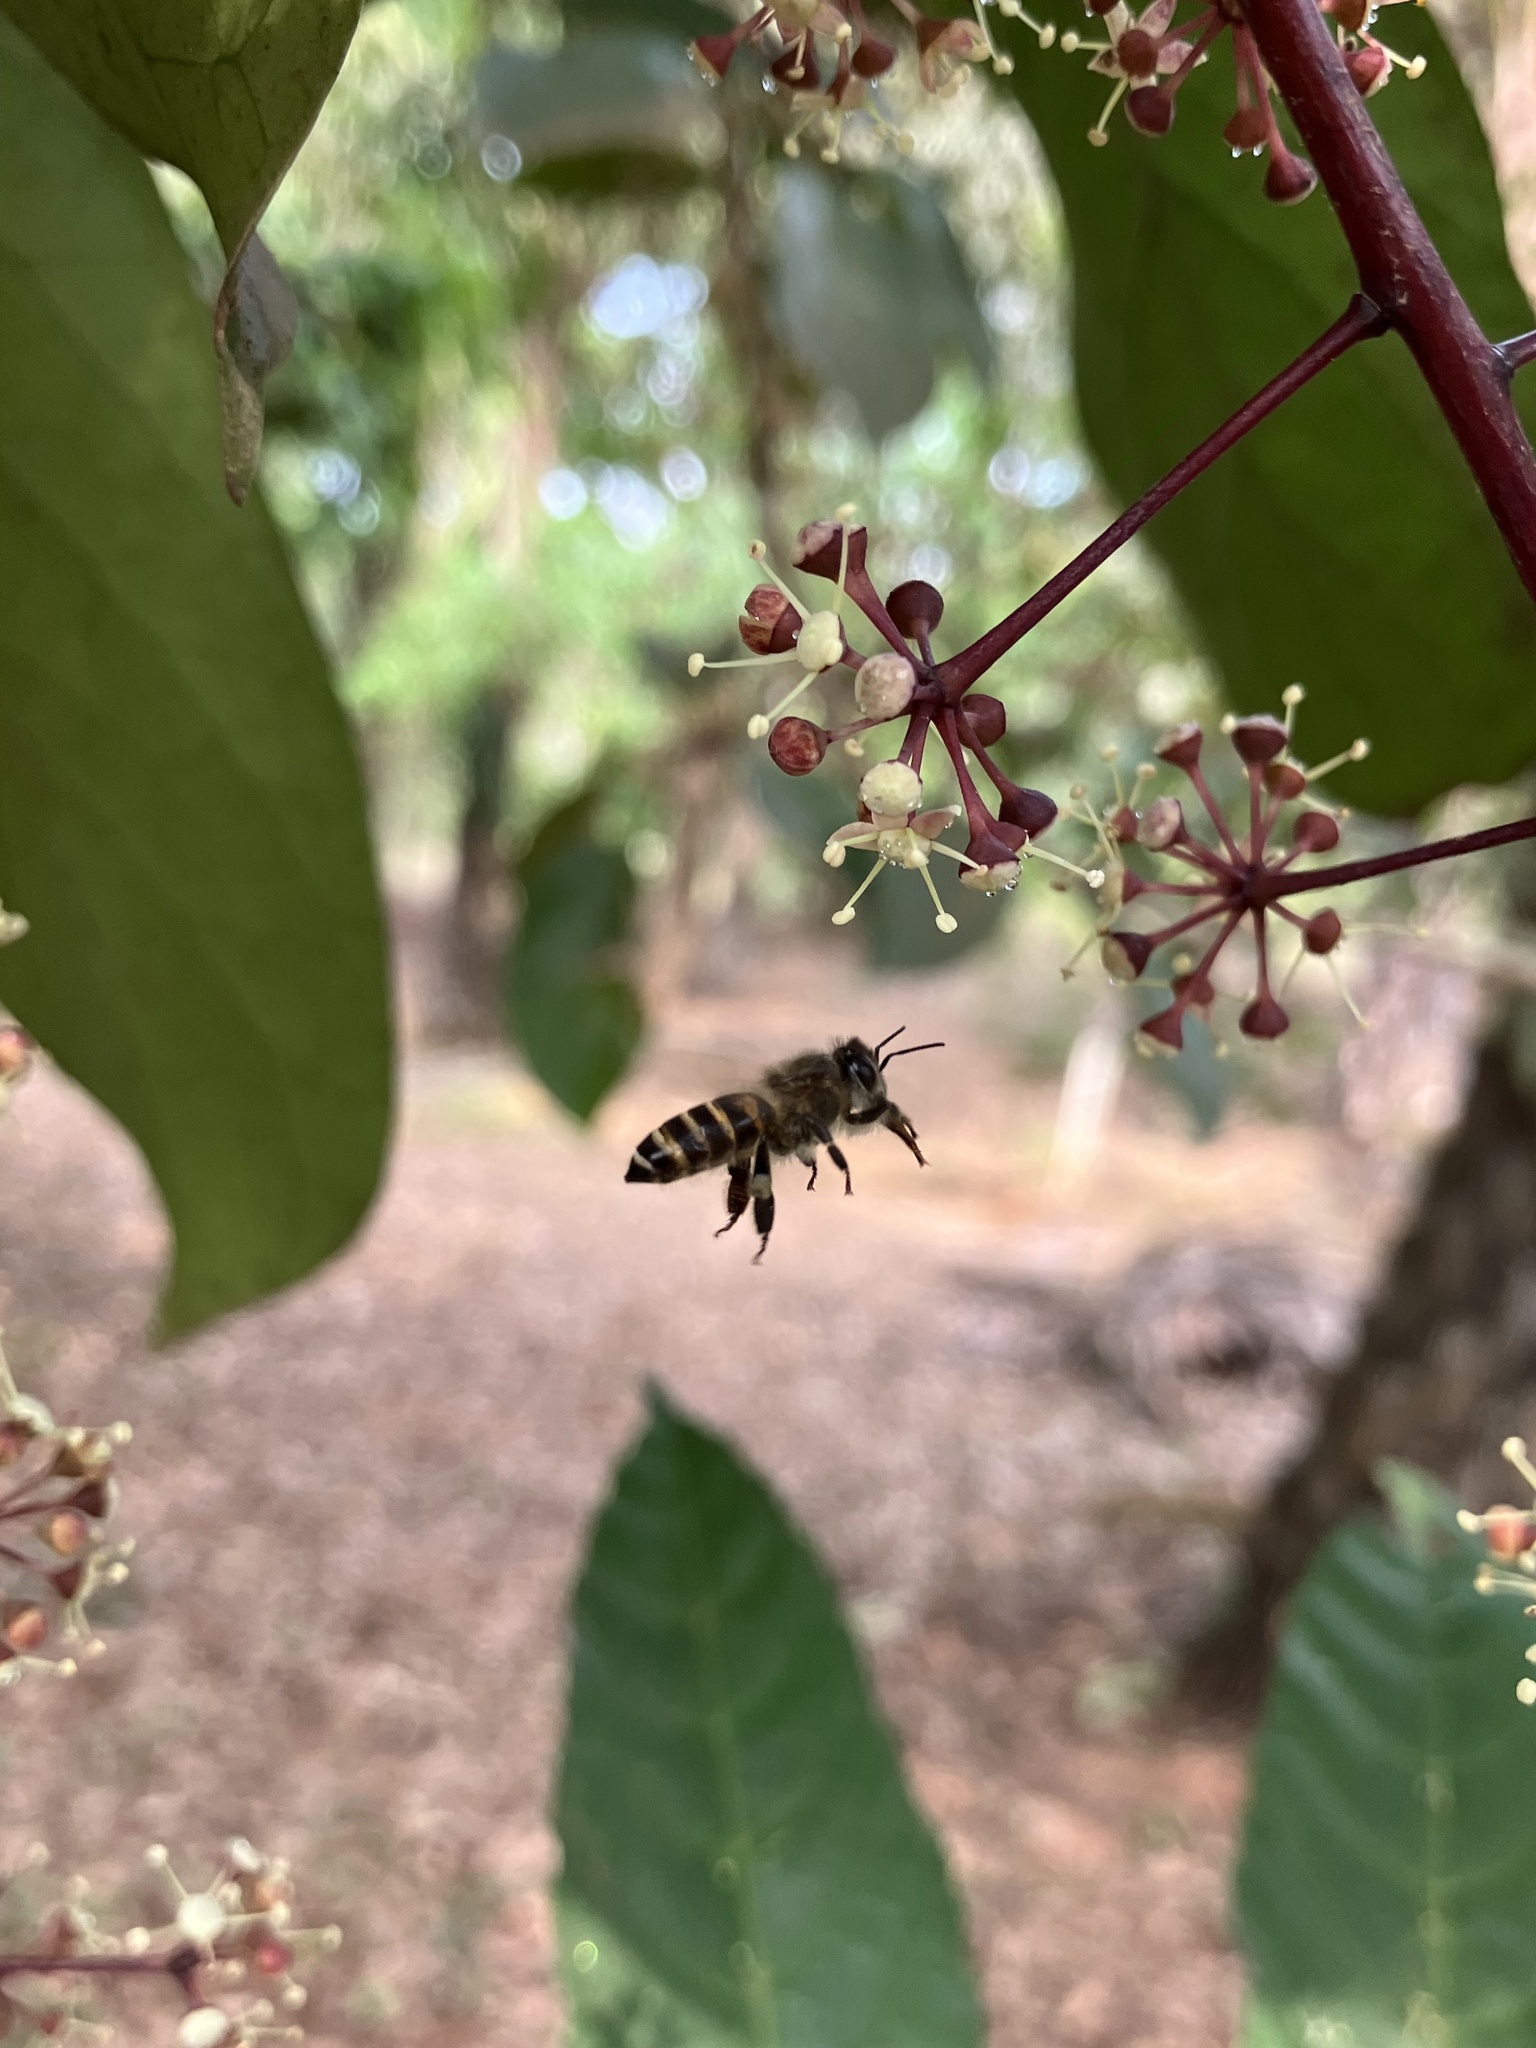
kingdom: Animalia
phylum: Arthropoda
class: Insecta
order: Hymenoptera
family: Apidae
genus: Apis
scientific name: Apis cerana
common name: Honey bee
